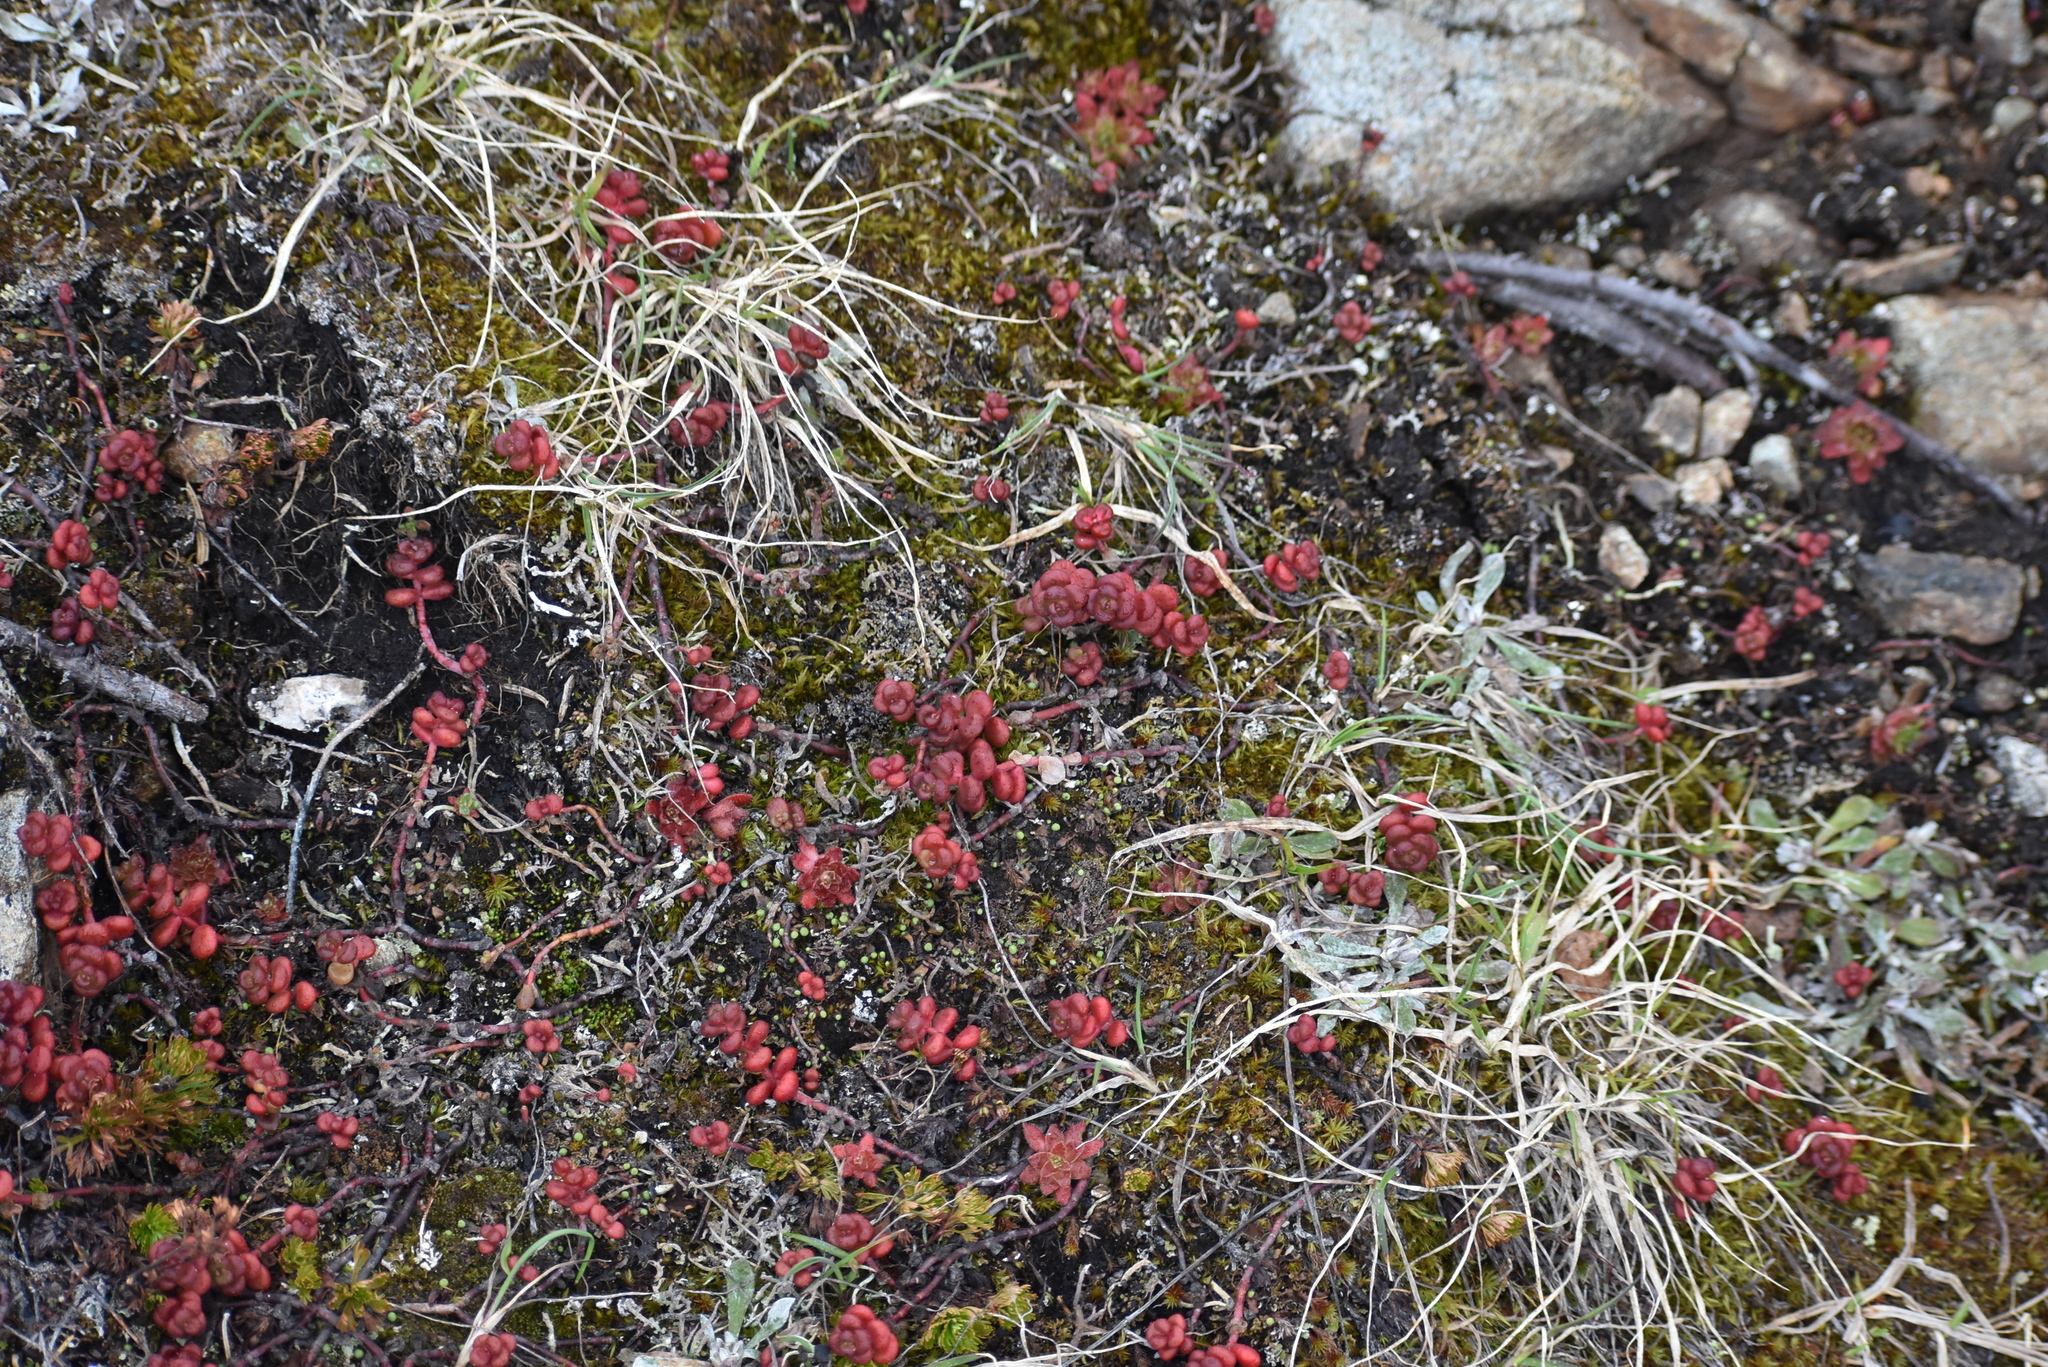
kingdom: Plantae
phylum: Tracheophyta
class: Magnoliopsida
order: Saxifragales
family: Crassulaceae
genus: Sedum
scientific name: Sedum divergens
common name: Cascade stonecrop
